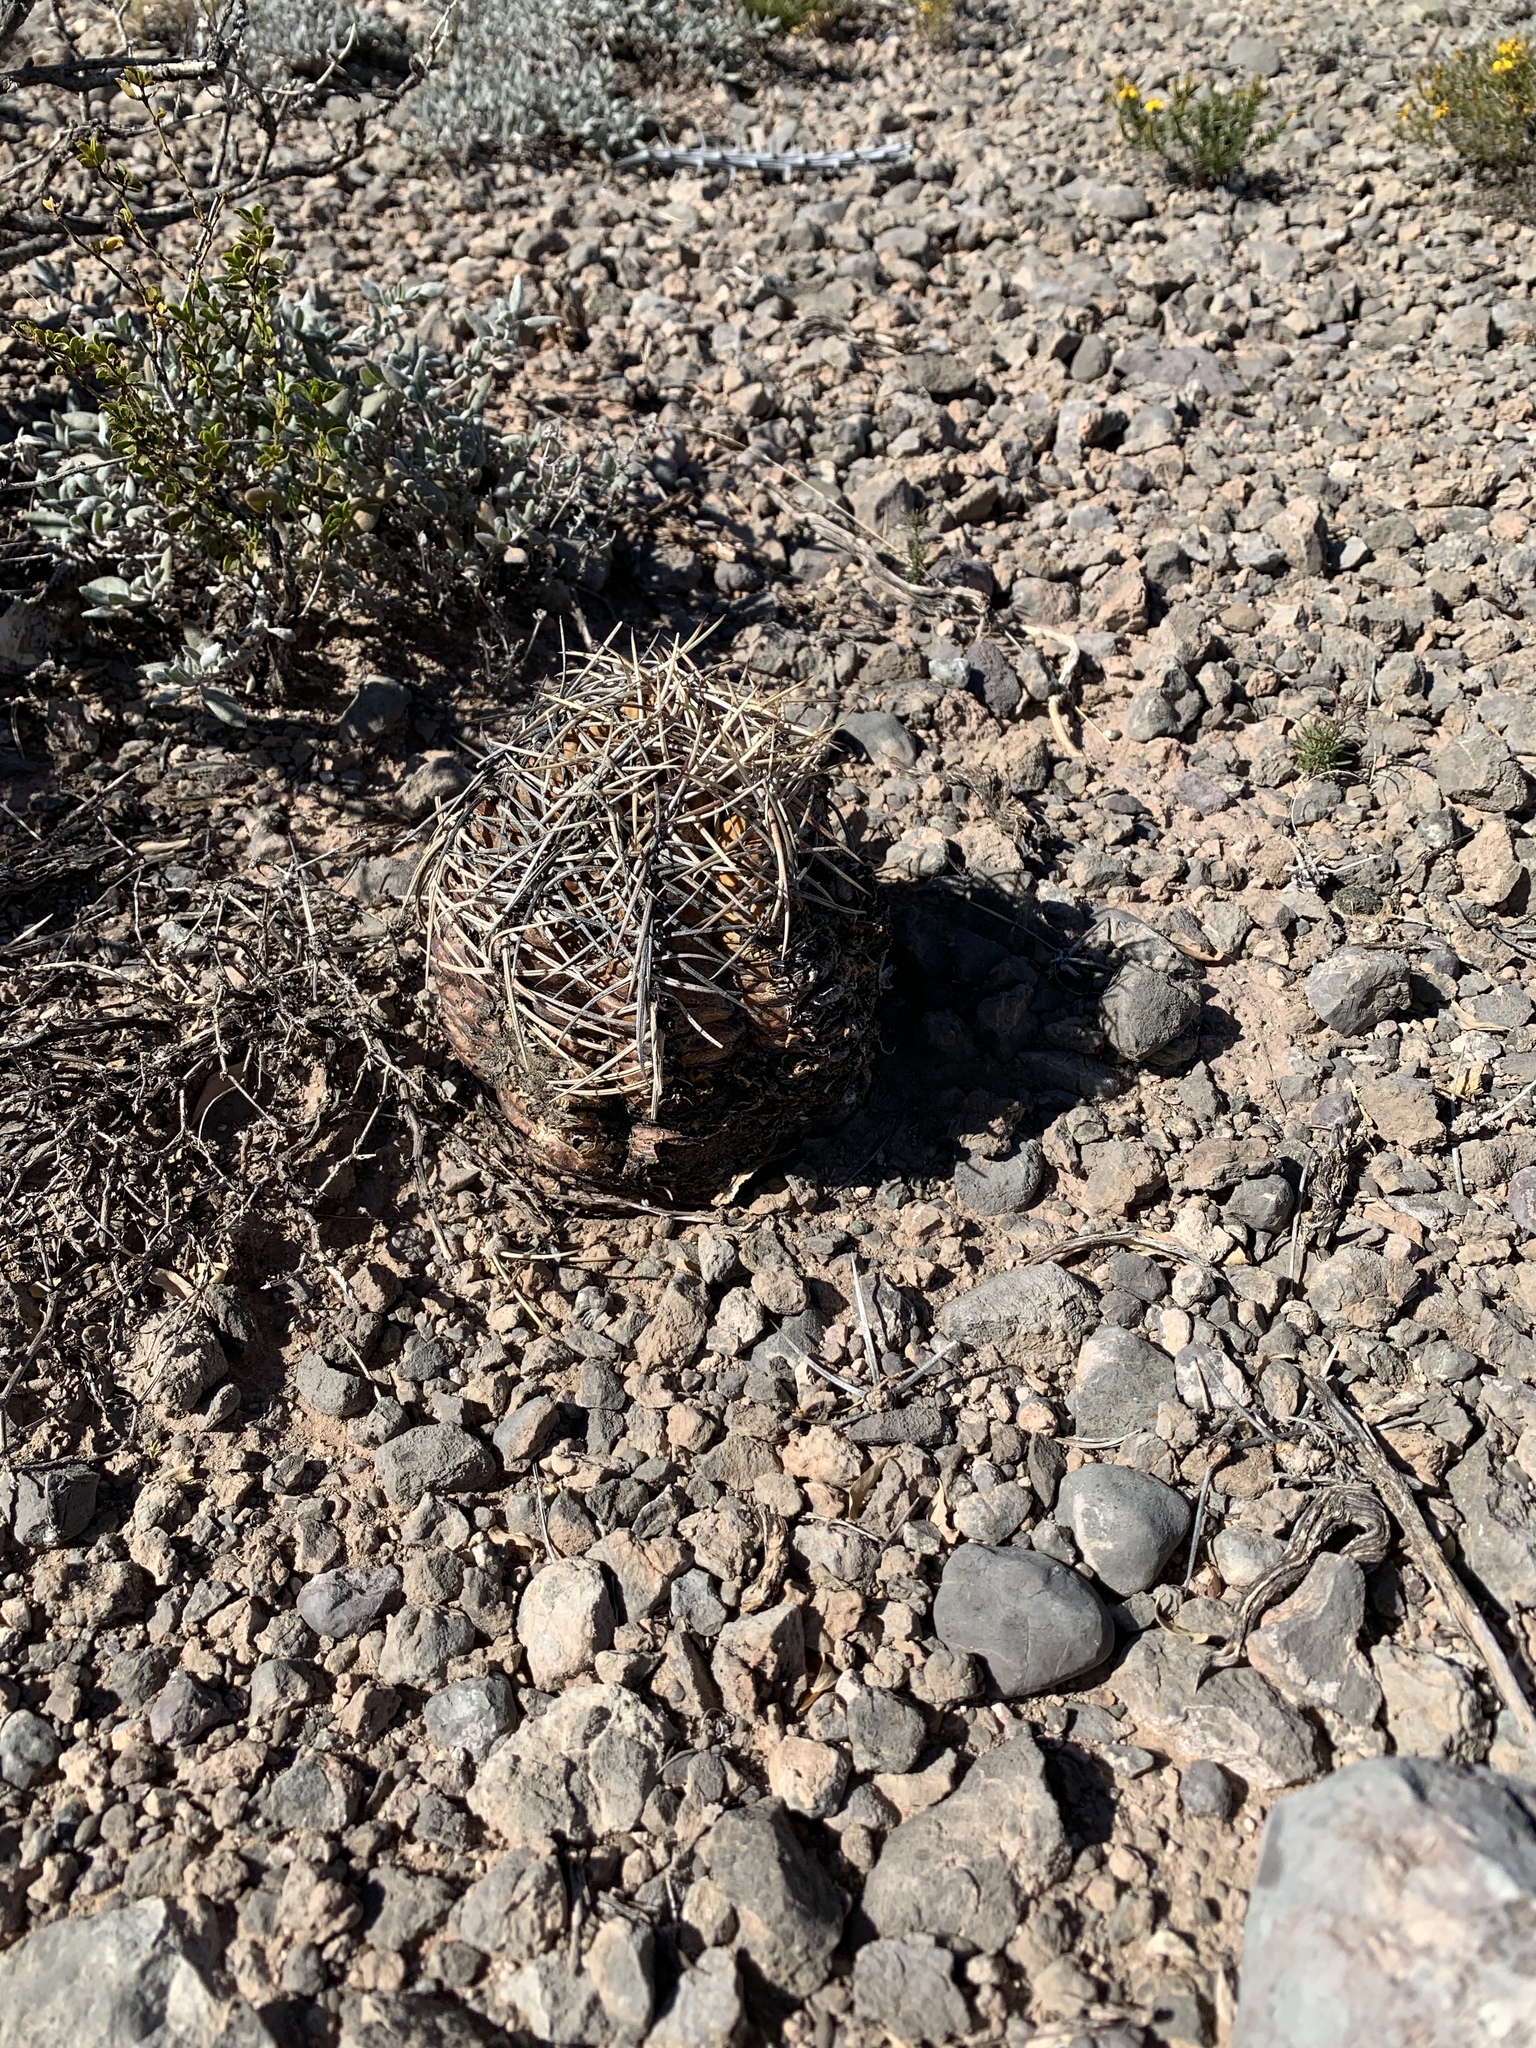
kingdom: Plantae
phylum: Tracheophyta
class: Magnoliopsida
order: Caryophyllales
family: Cactaceae
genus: Echinocactus
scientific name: Echinocactus horizonthalonius
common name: Devilshead
